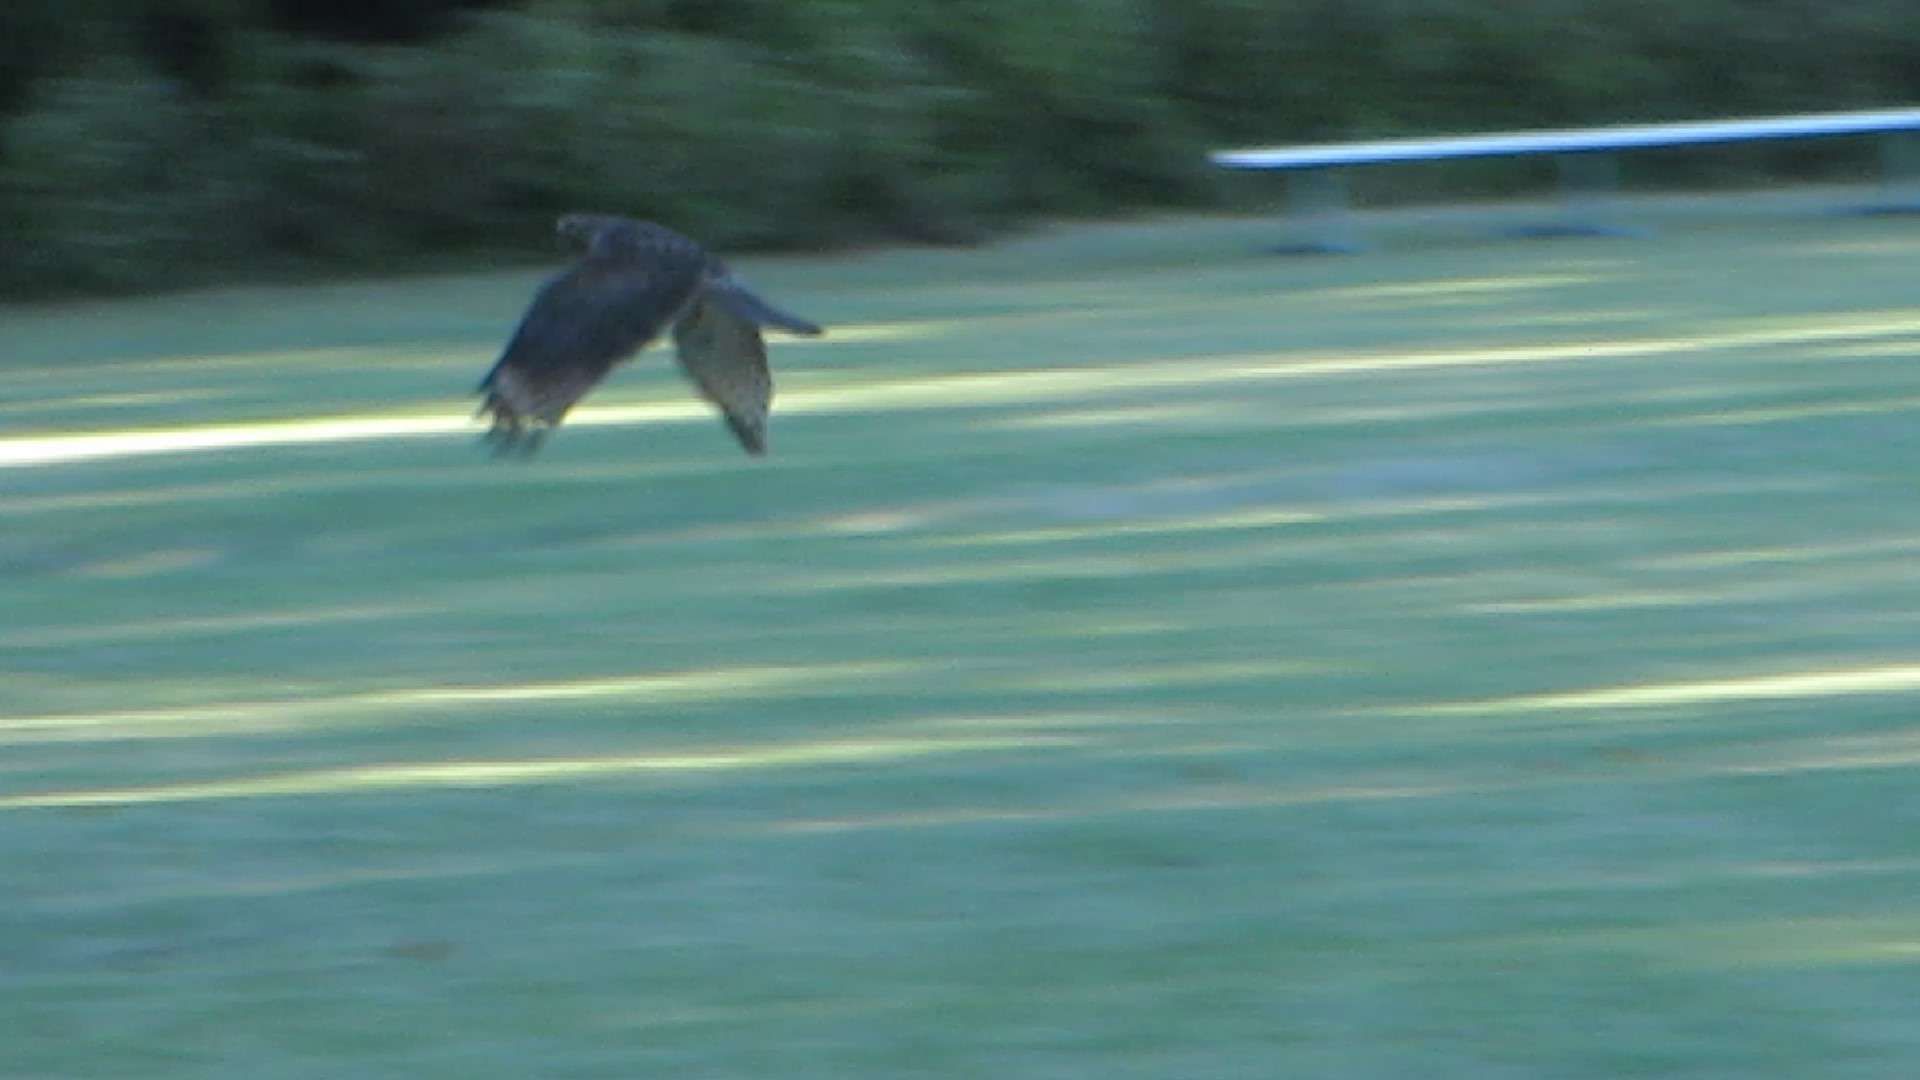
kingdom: Animalia
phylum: Chordata
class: Aves
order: Accipitriformes
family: Accipitridae
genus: Buteo
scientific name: Buteo lineatus
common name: Red-shouldered hawk
